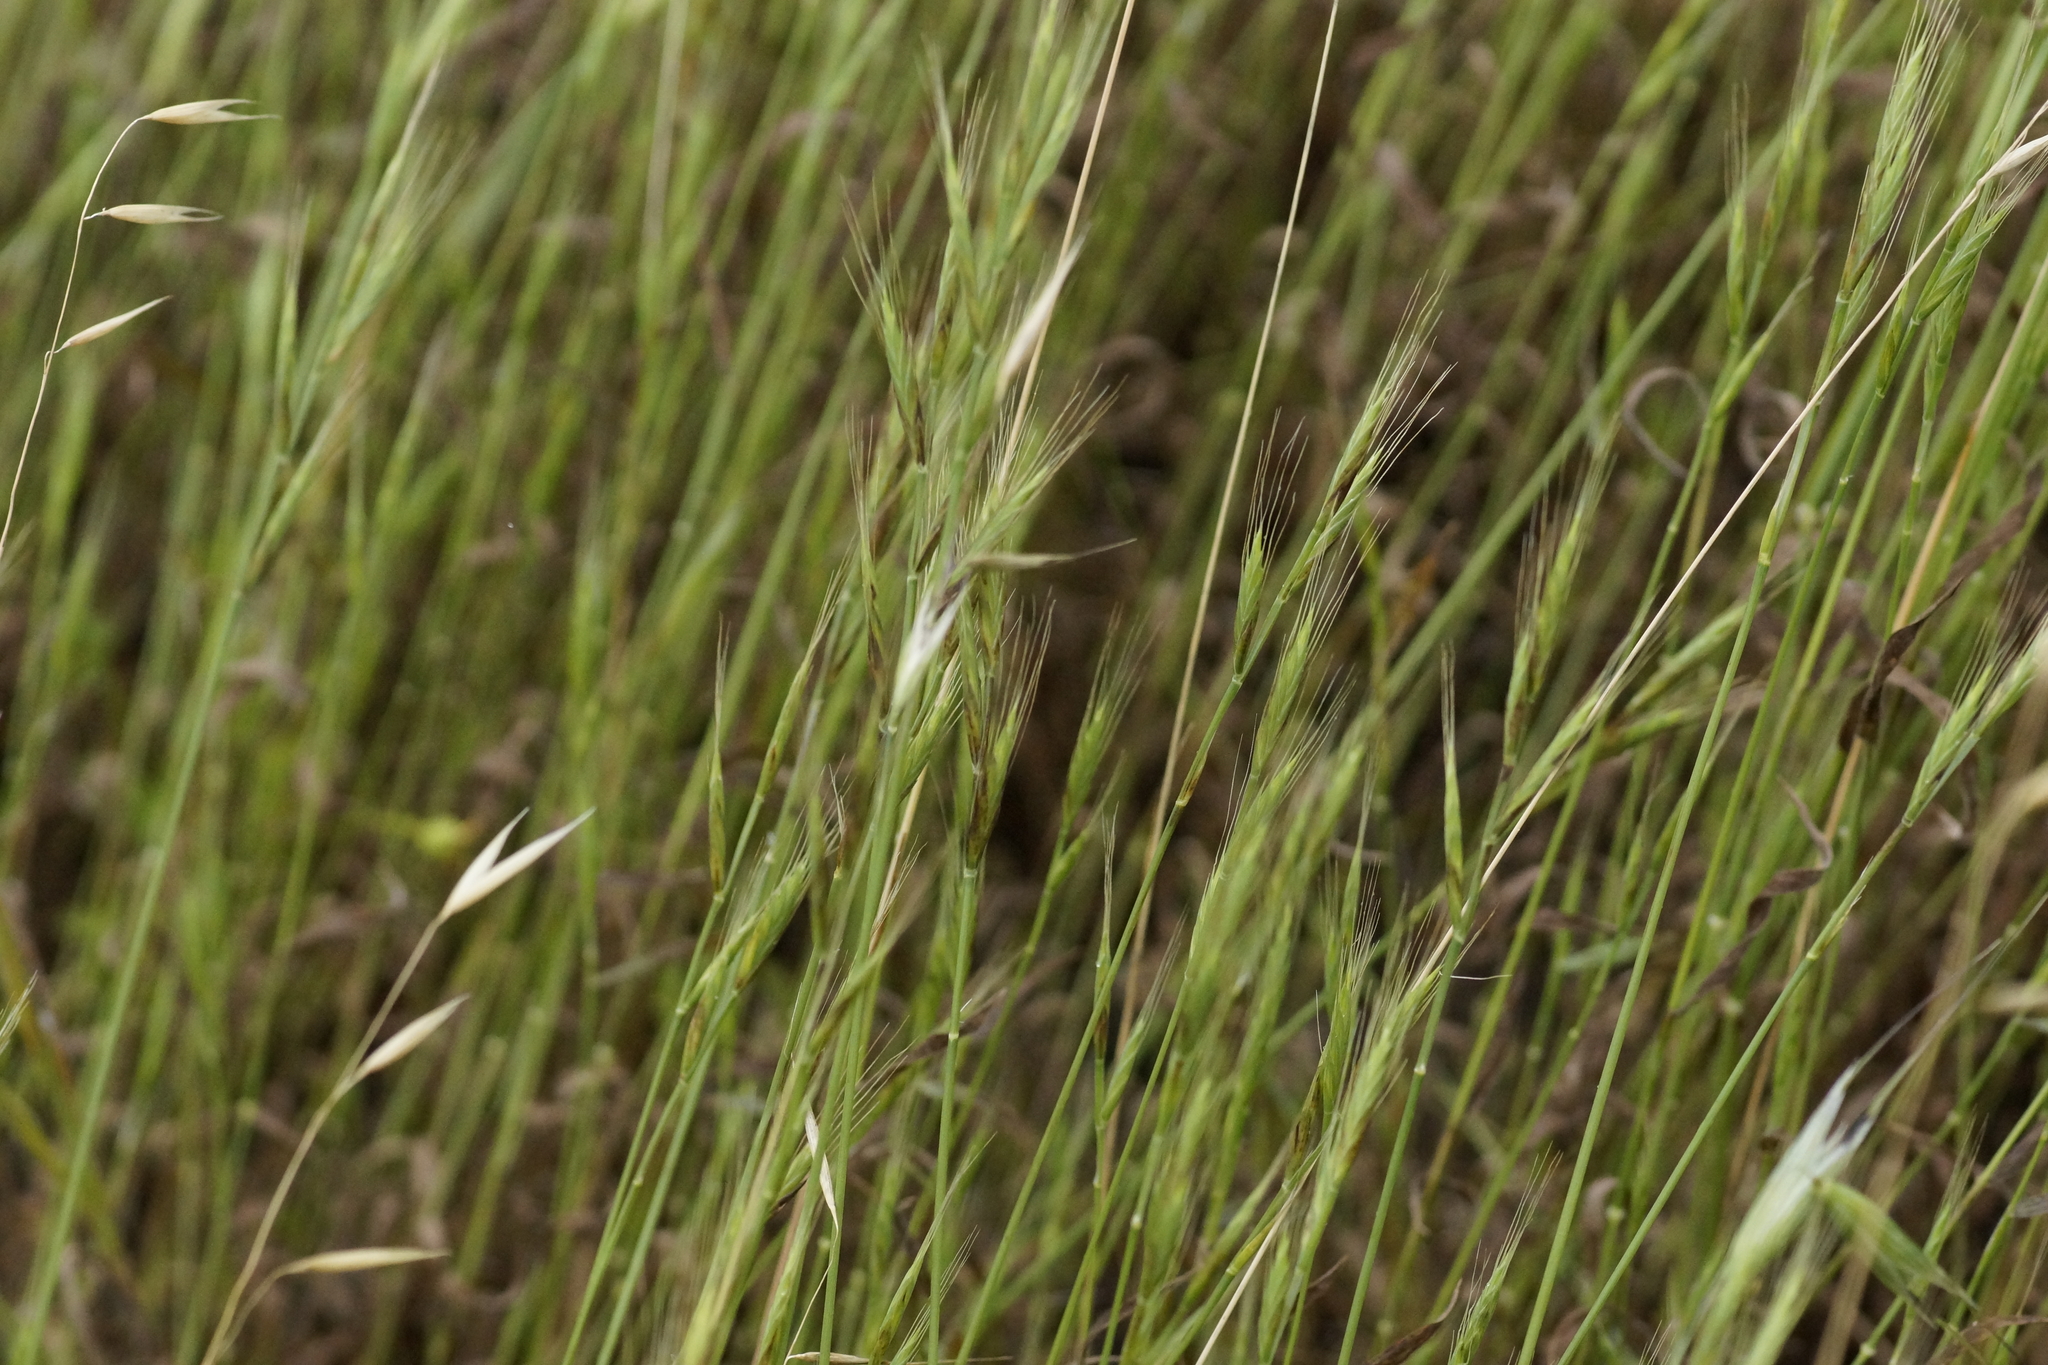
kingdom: Plantae
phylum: Tracheophyta
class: Liliopsida
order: Poales
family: Poaceae
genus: Brachypodium
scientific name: Brachypodium distachyon
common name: Stiff brome
